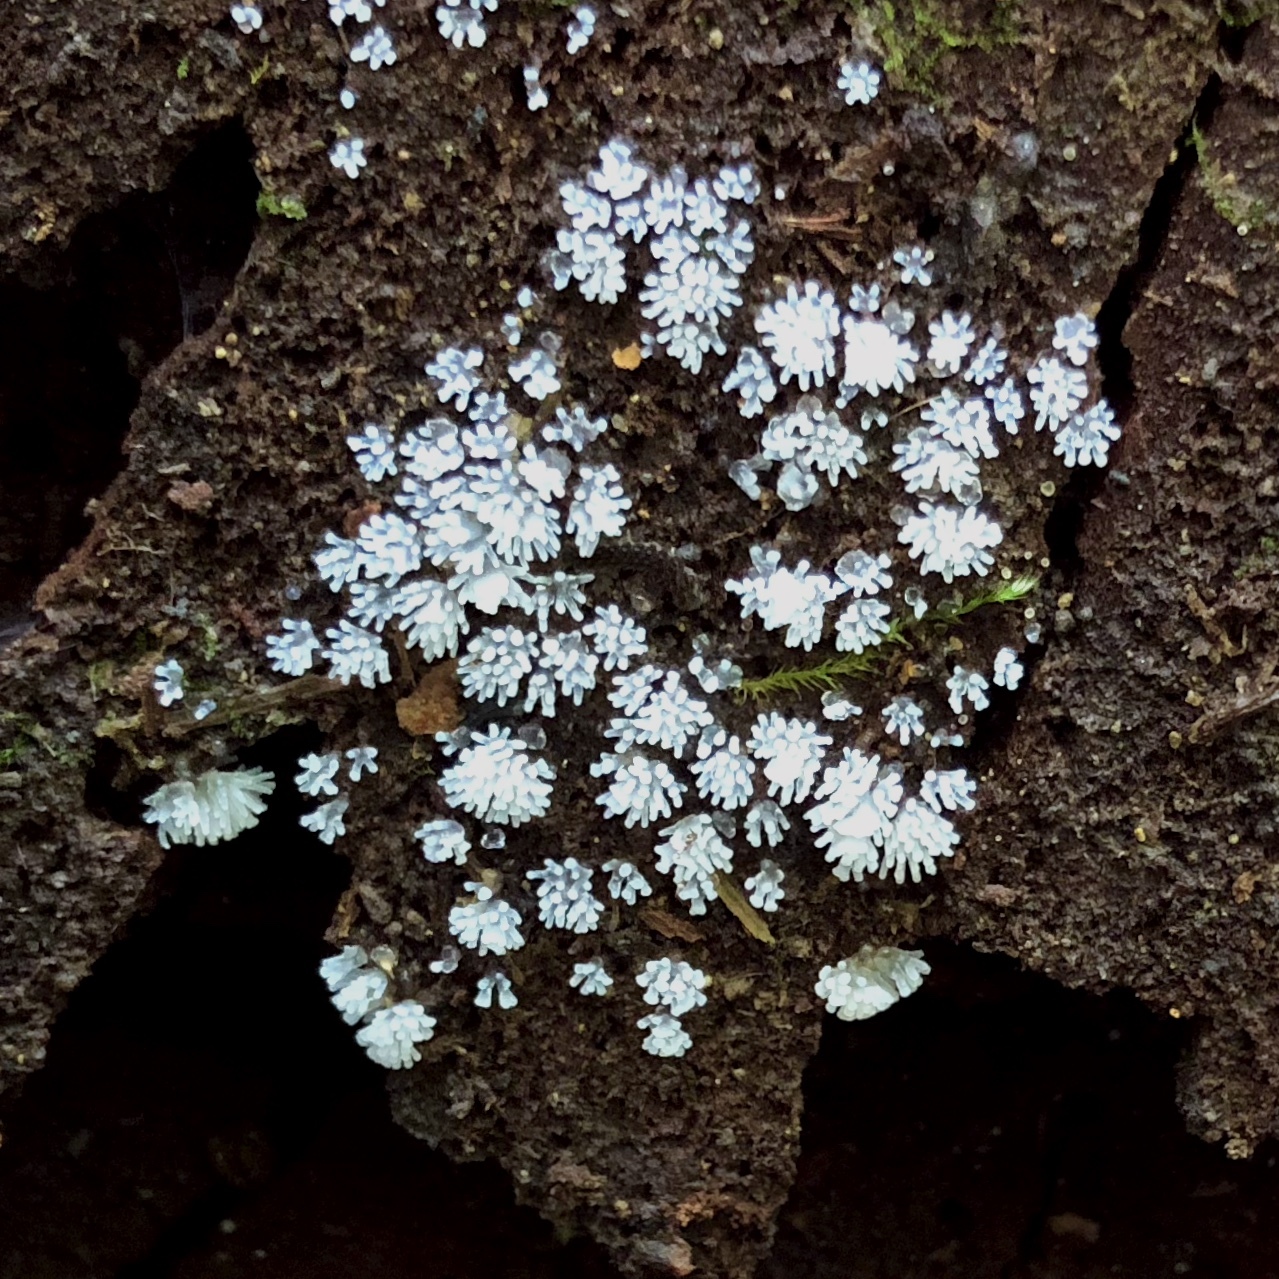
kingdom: Protozoa
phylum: Mycetozoa
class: Protosteliomycetes
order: Ceratiomyxales
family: Ceratiomyxaceae
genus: Ceratiomyxa
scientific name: Ceratiomyxa fruticulosa
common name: Honeycomb coral slime mold
